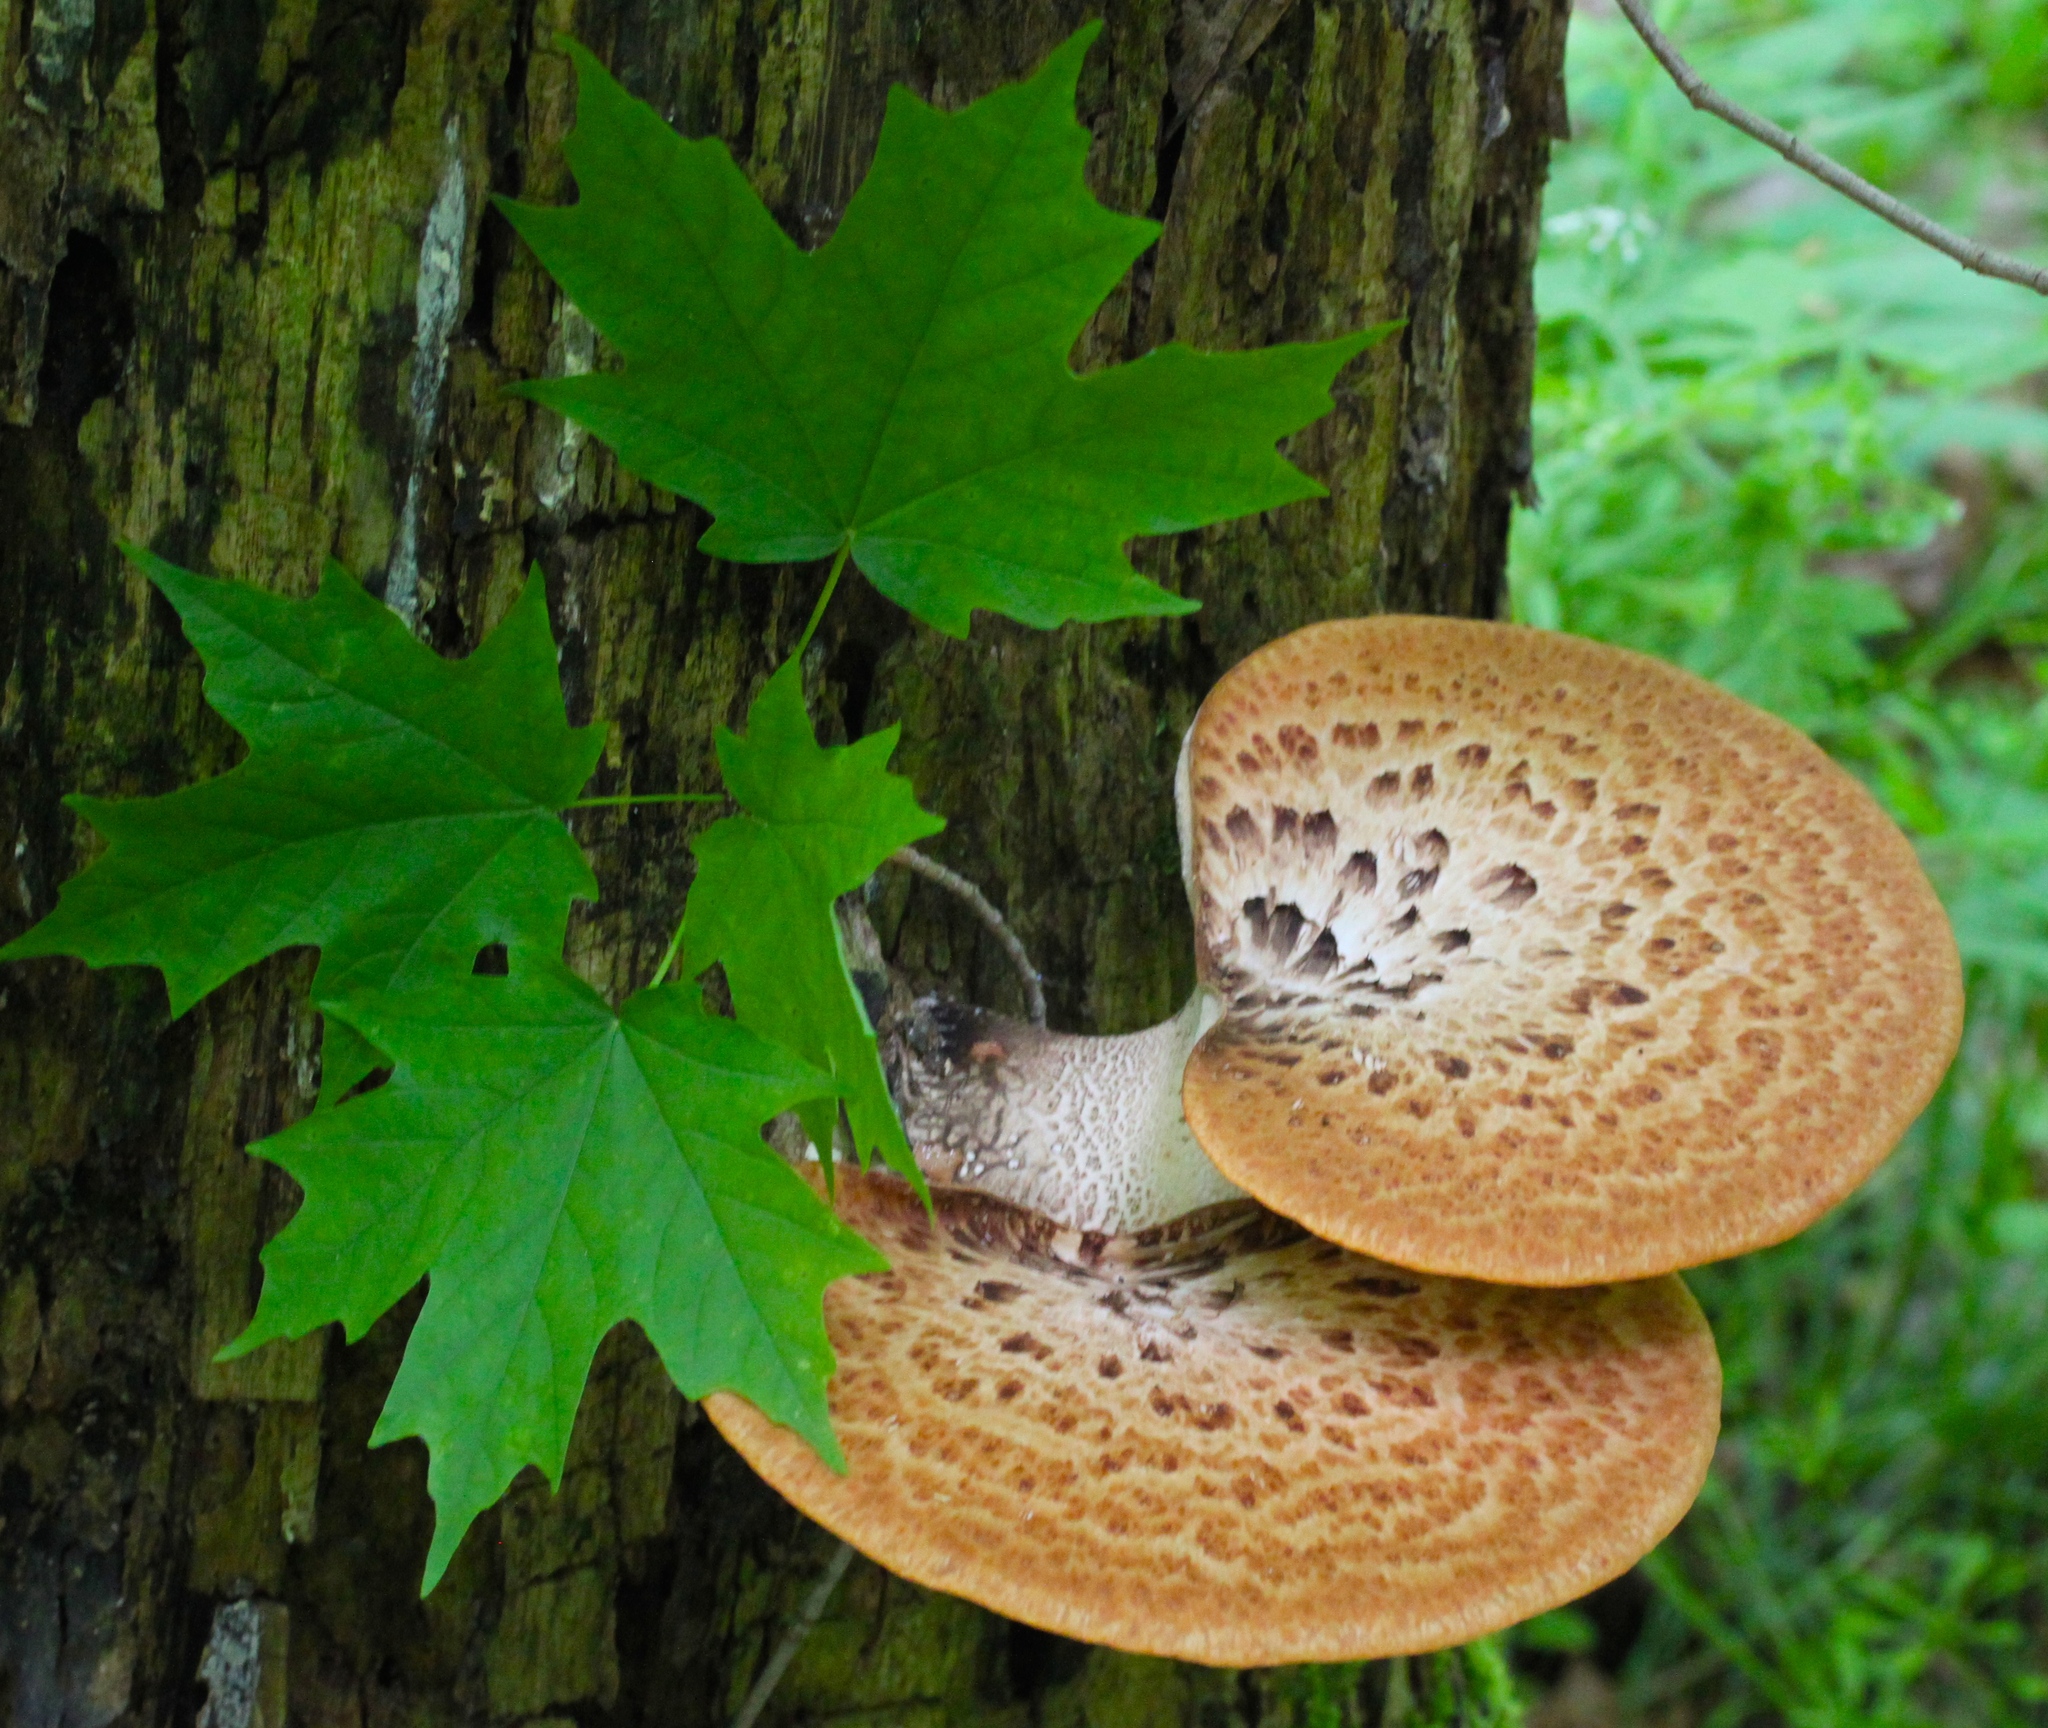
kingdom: Fungi
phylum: Basidiomycota
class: Agaricomycetes
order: Polyporales
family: Polyporaceae
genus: Cerioporus
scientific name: Cerioporus squamosus
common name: Dryad's saddle
